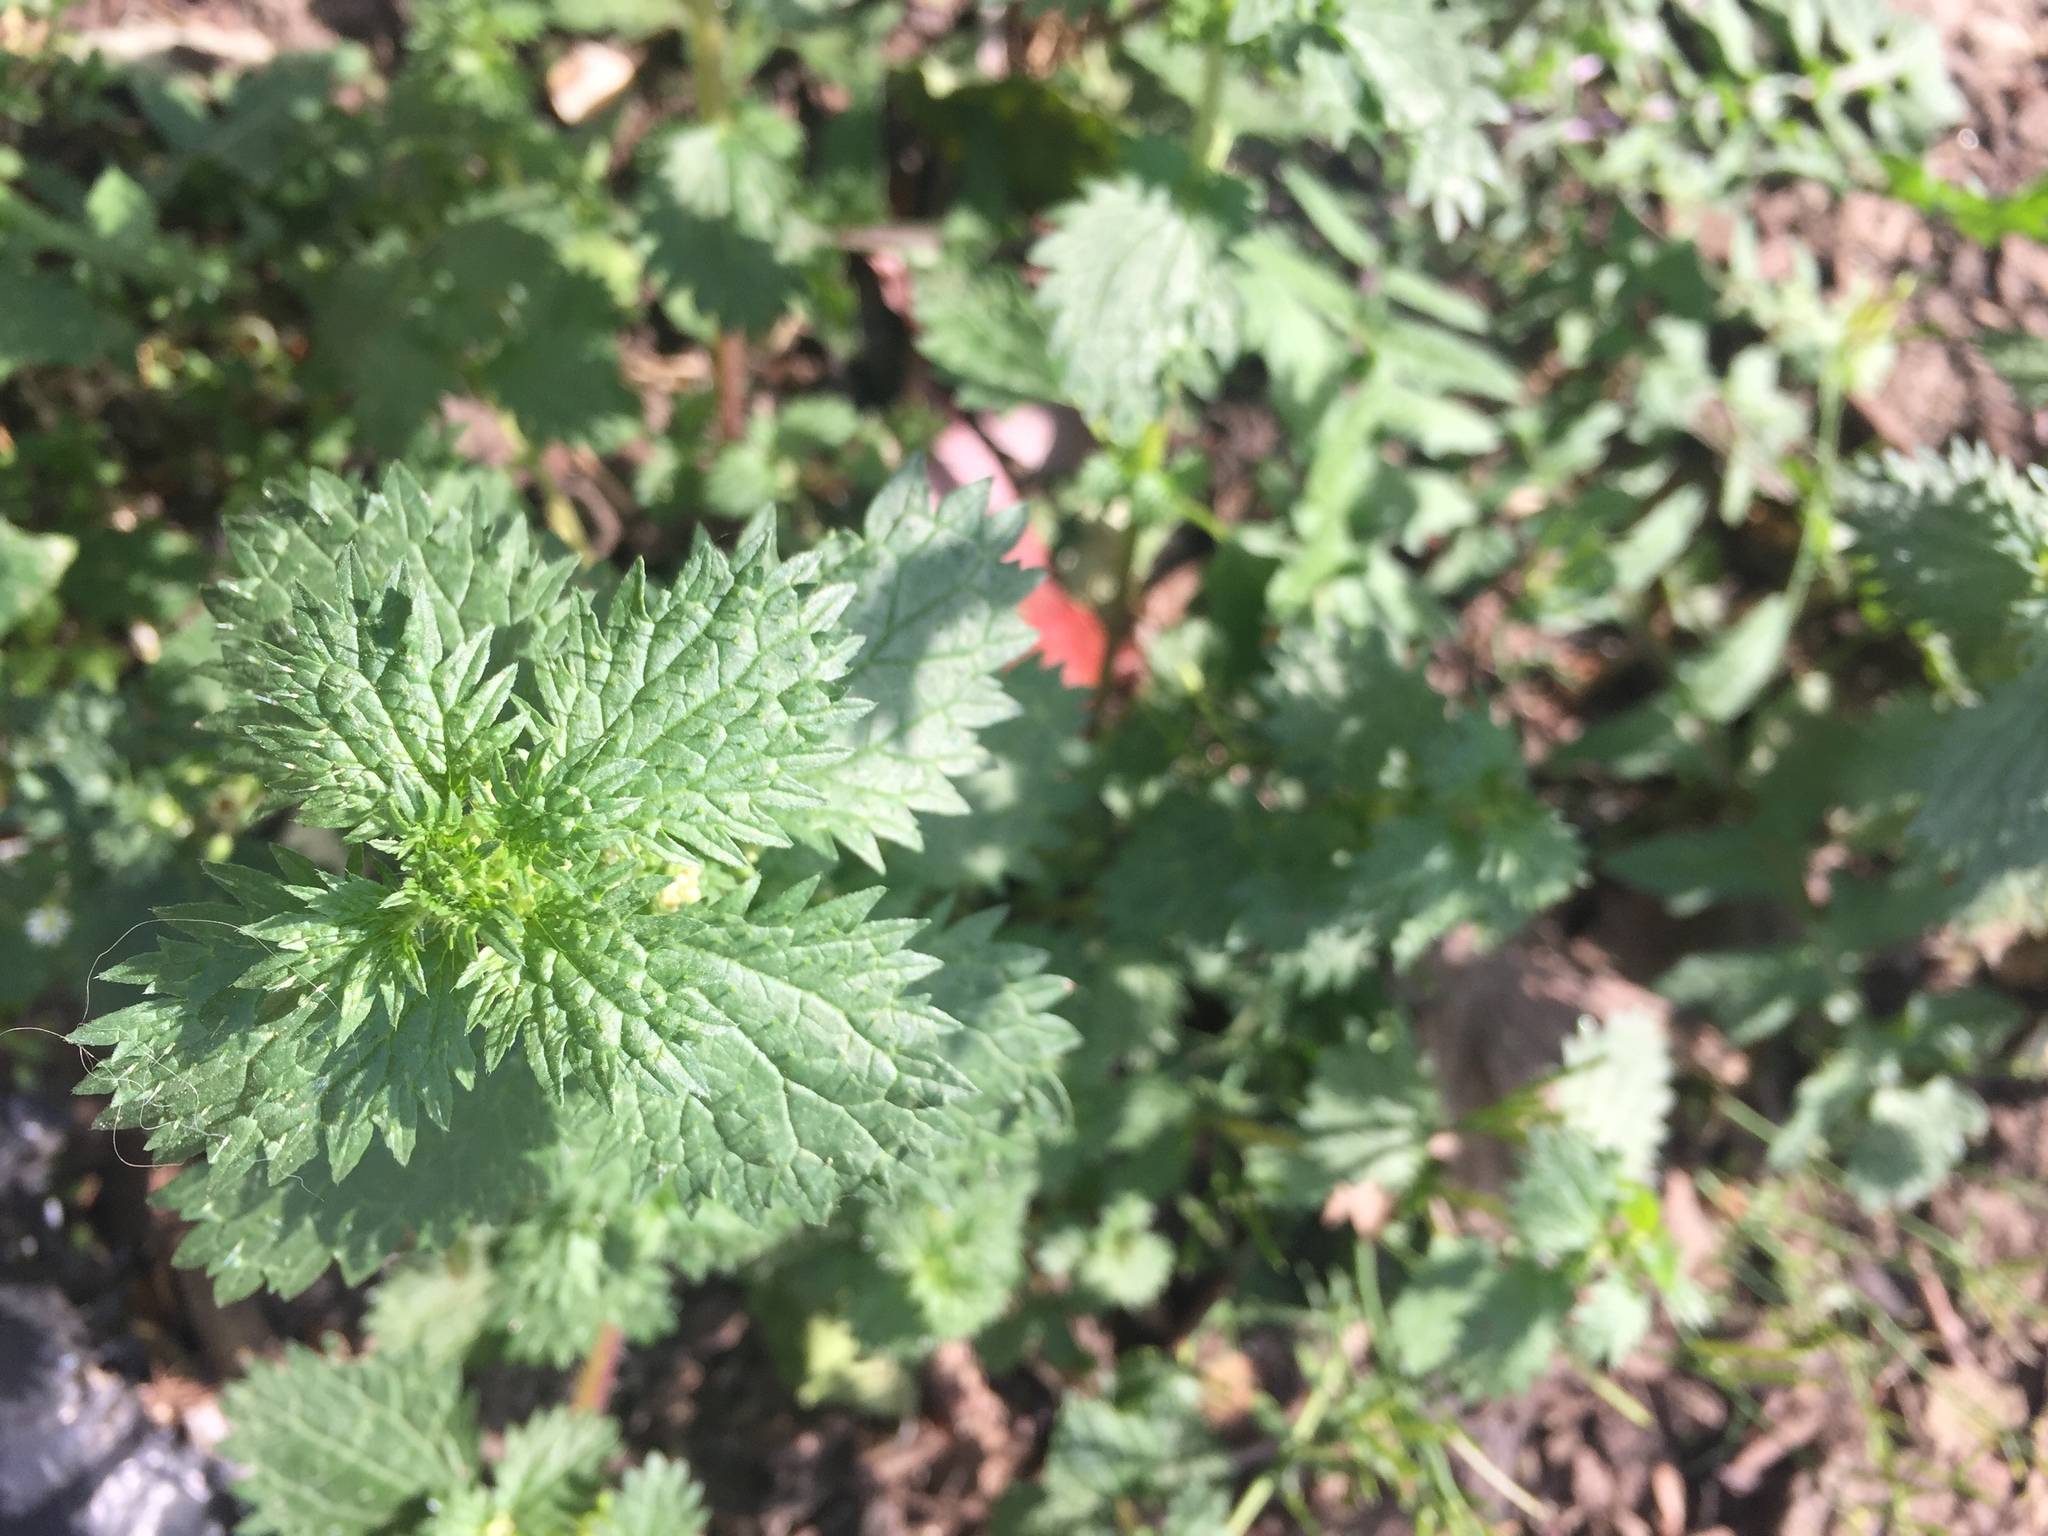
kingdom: Plantae
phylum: Tracheophyta
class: Magnoliopsida
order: Rosales
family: Urticaceae
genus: Urtica
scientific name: Urtica urens
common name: Dwarf nettle
